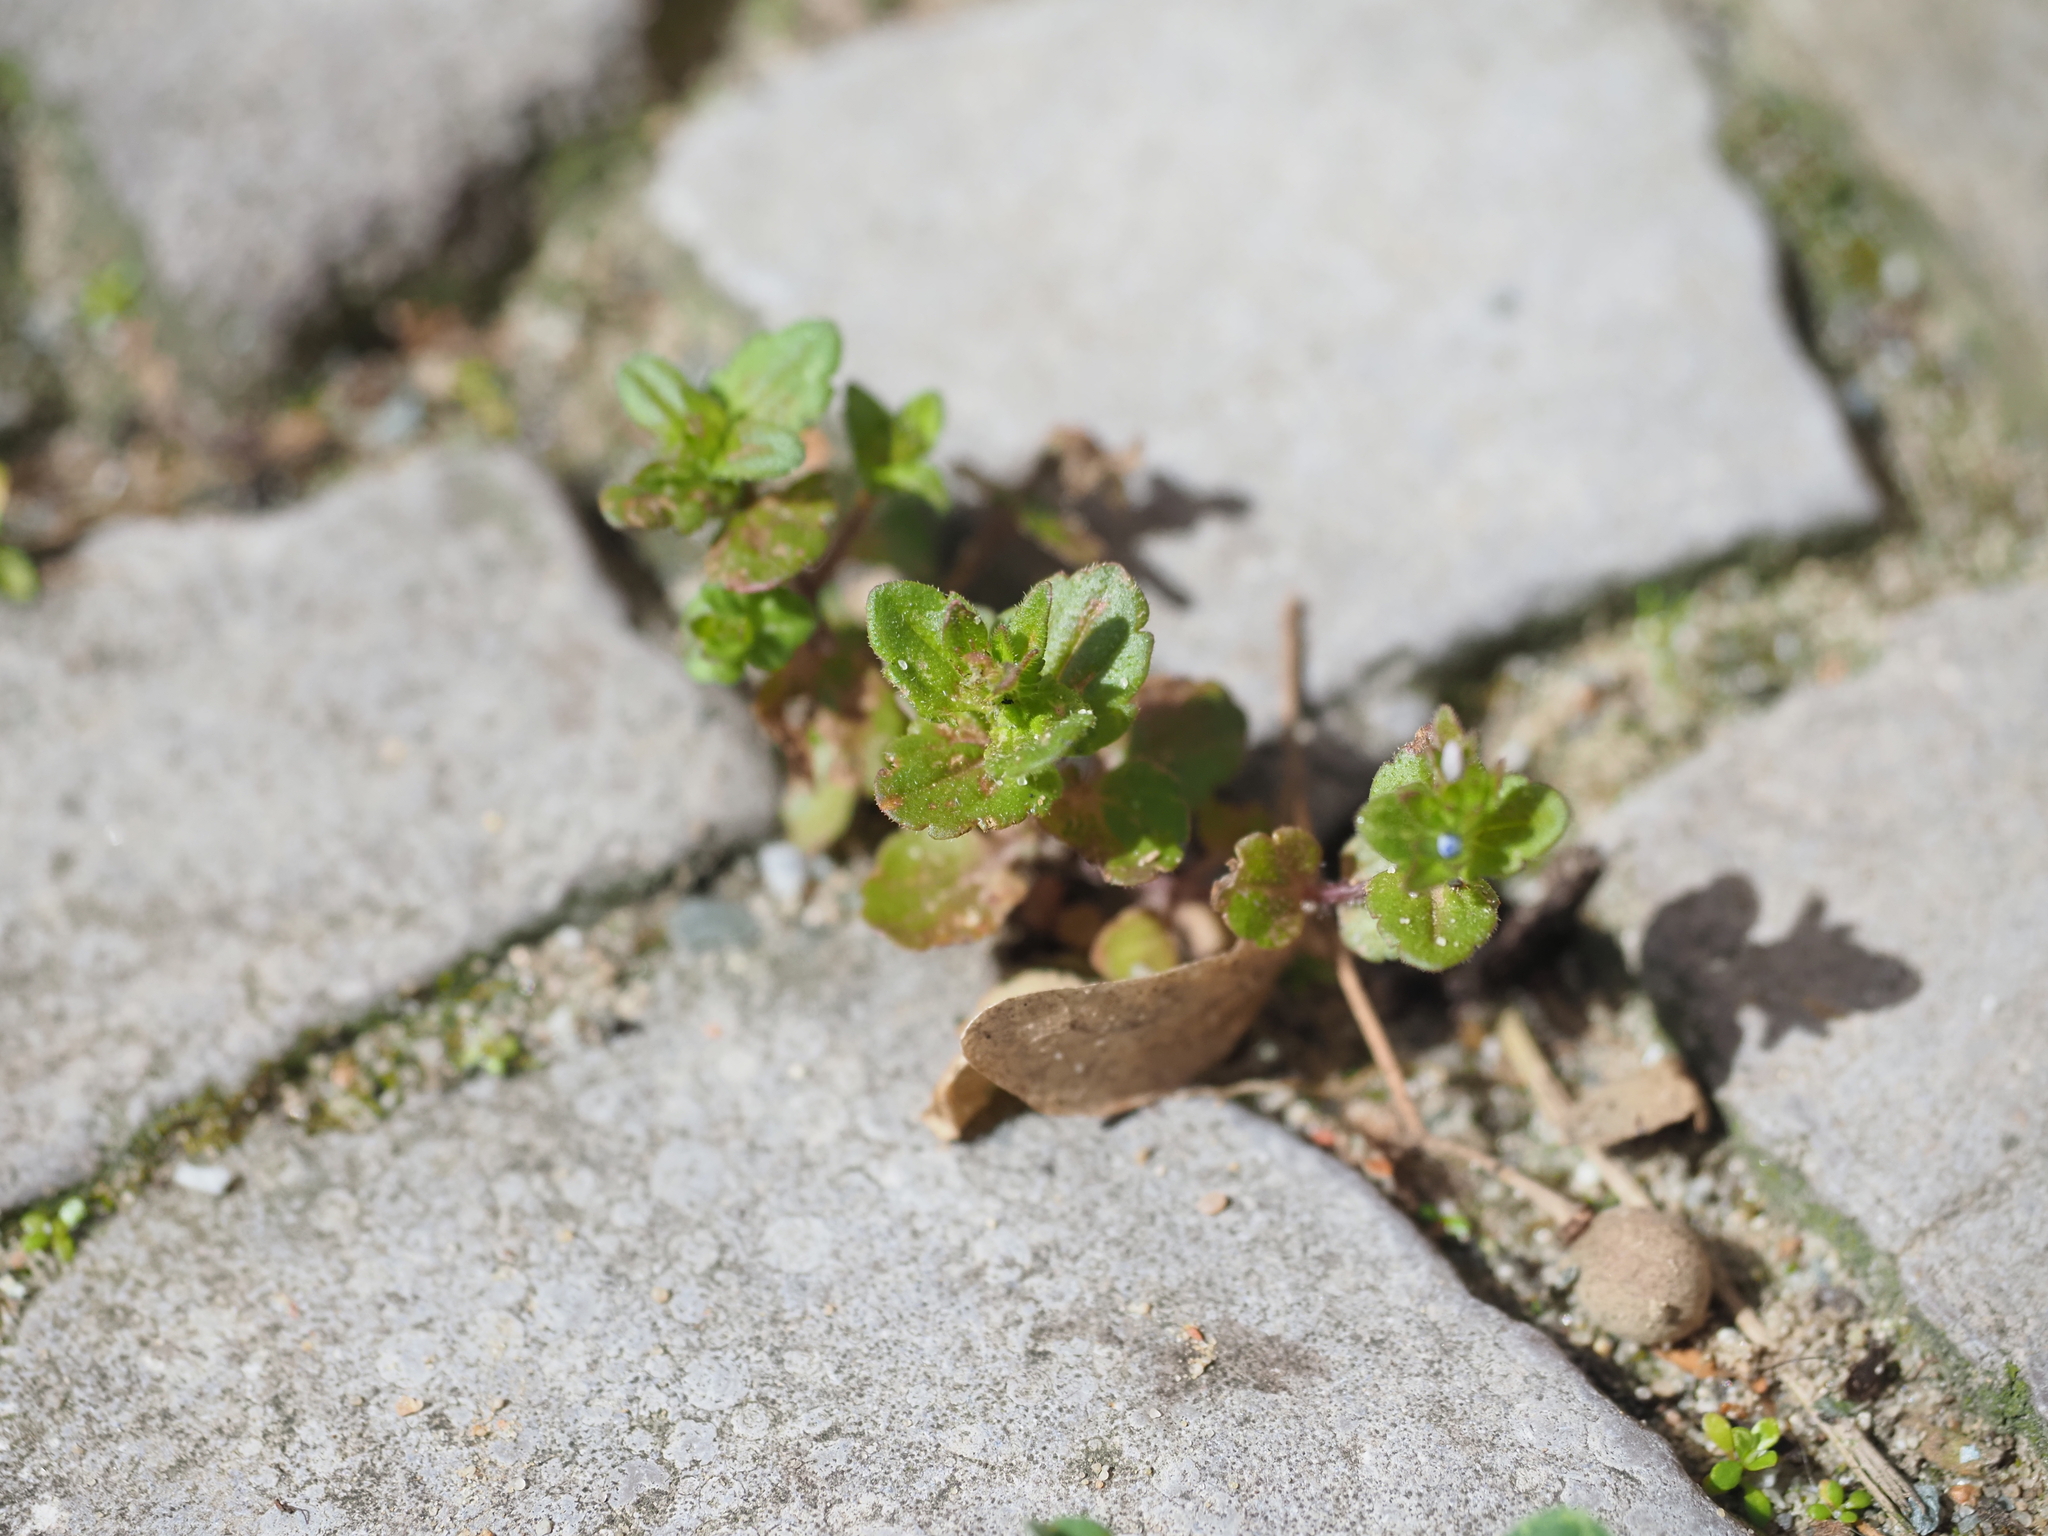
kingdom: Plantae
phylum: Tracheophyta
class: Magnoliopsida
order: Lamiales
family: Plantaginaceae
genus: Veronica
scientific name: Veronica arvensis
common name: Corn speedwell
